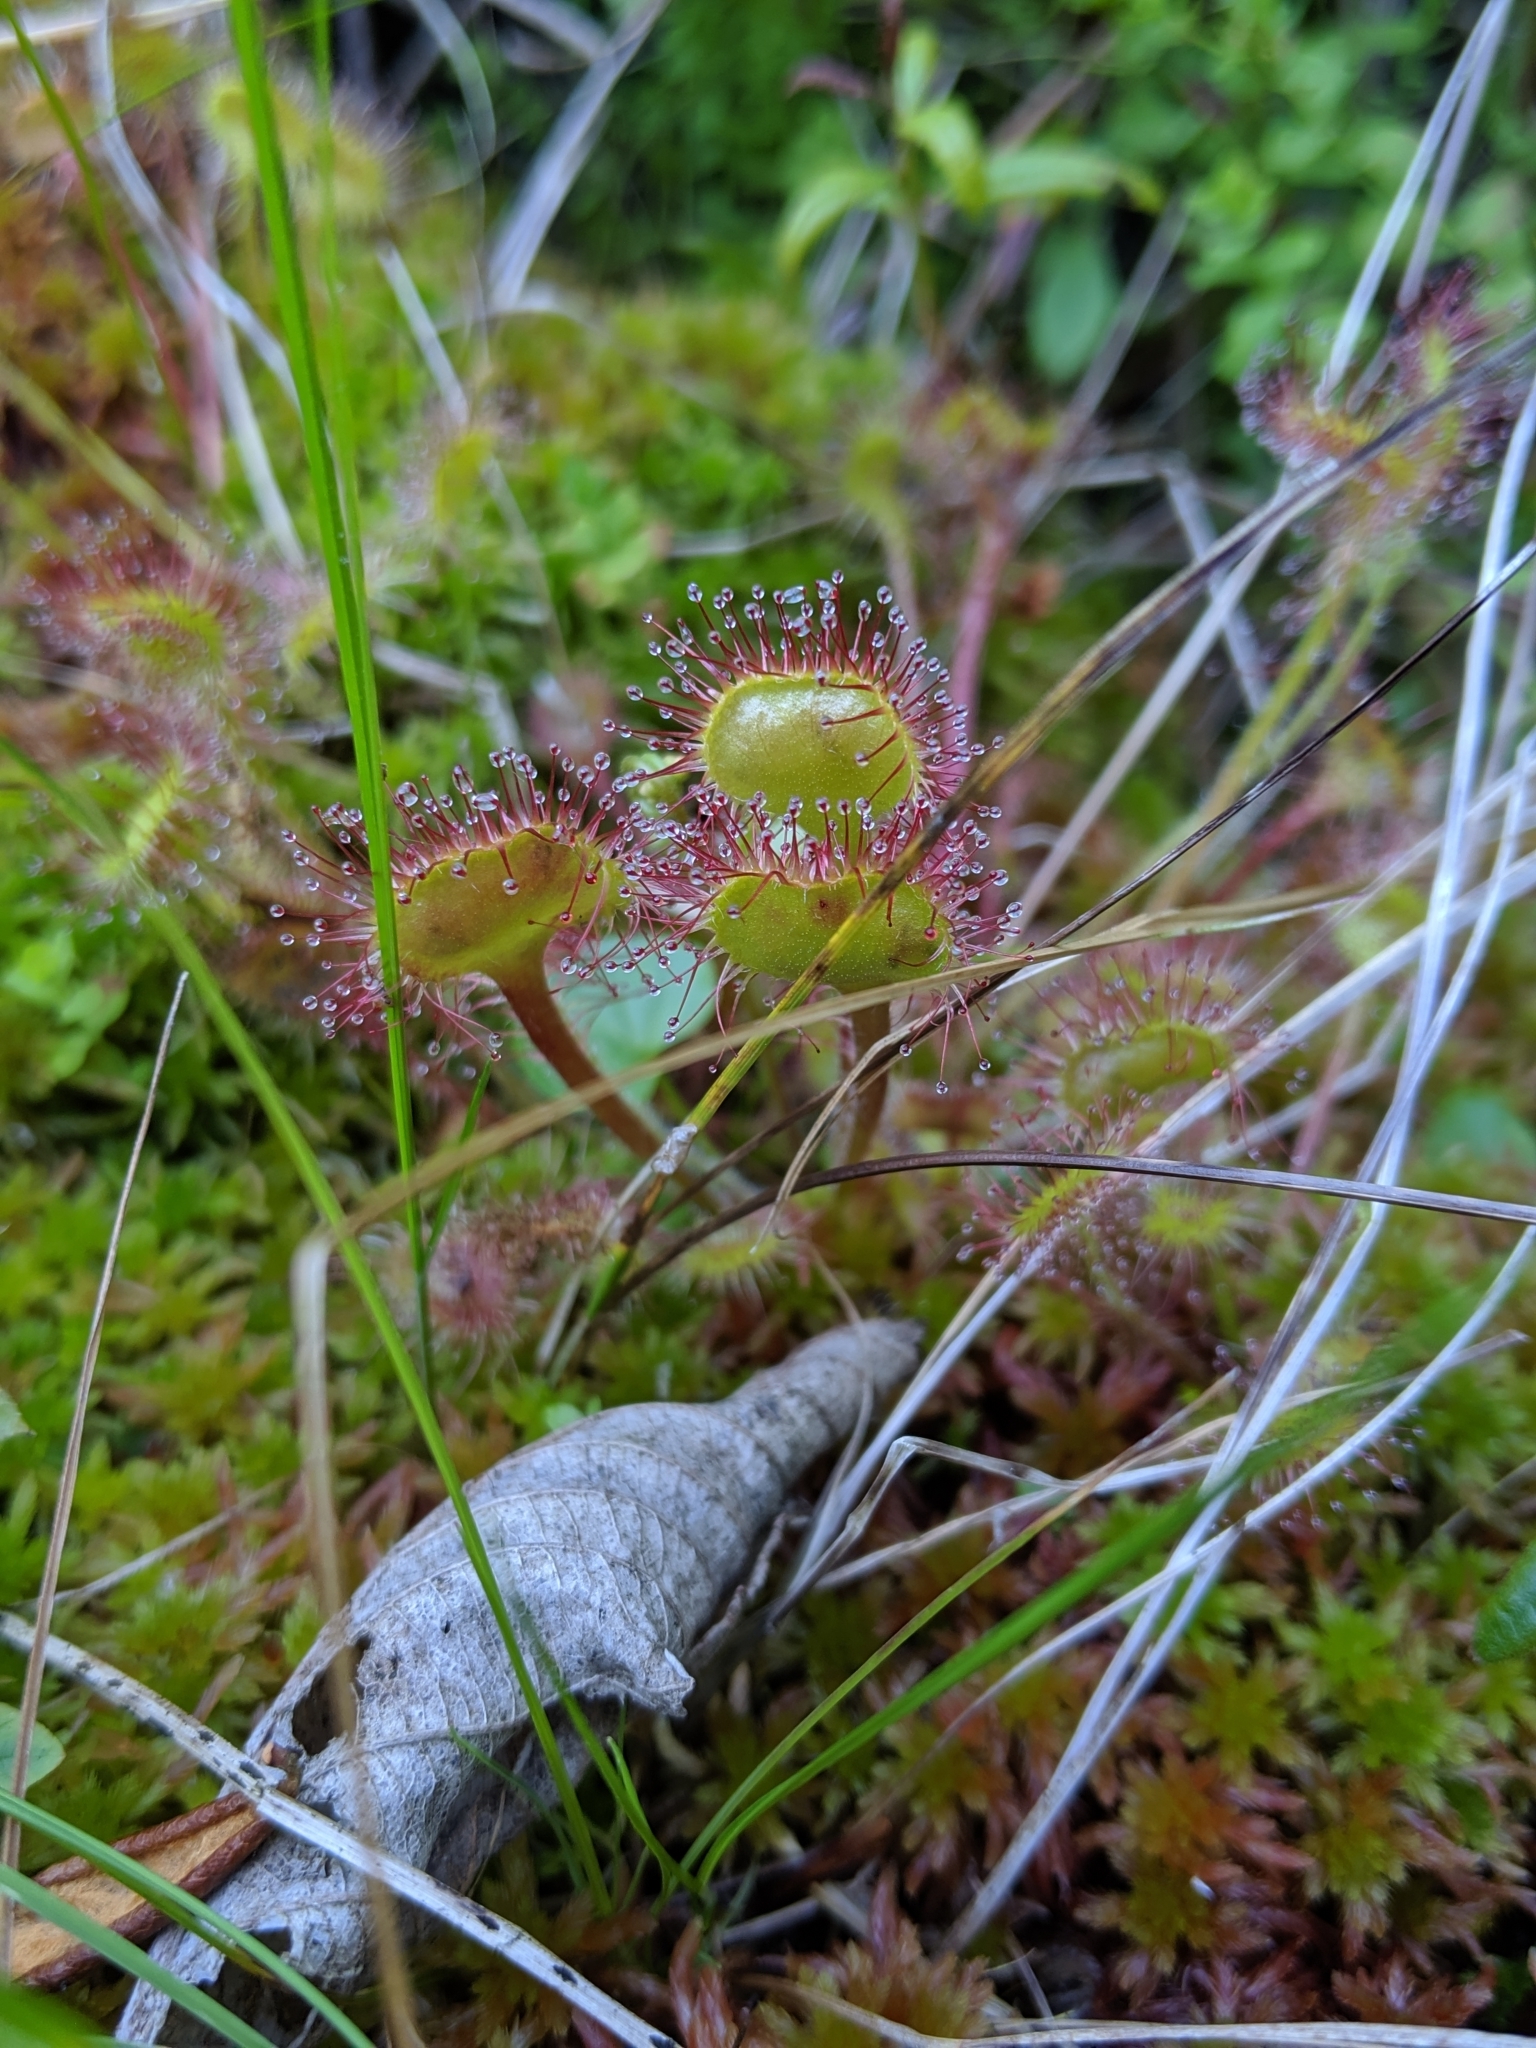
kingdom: Plantae
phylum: Tracheophyta
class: Magnoliopsida
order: Caryophyllales
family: Droseraceae
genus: Drosera
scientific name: Drosera rotundifolia
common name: Round-leaved sundew
